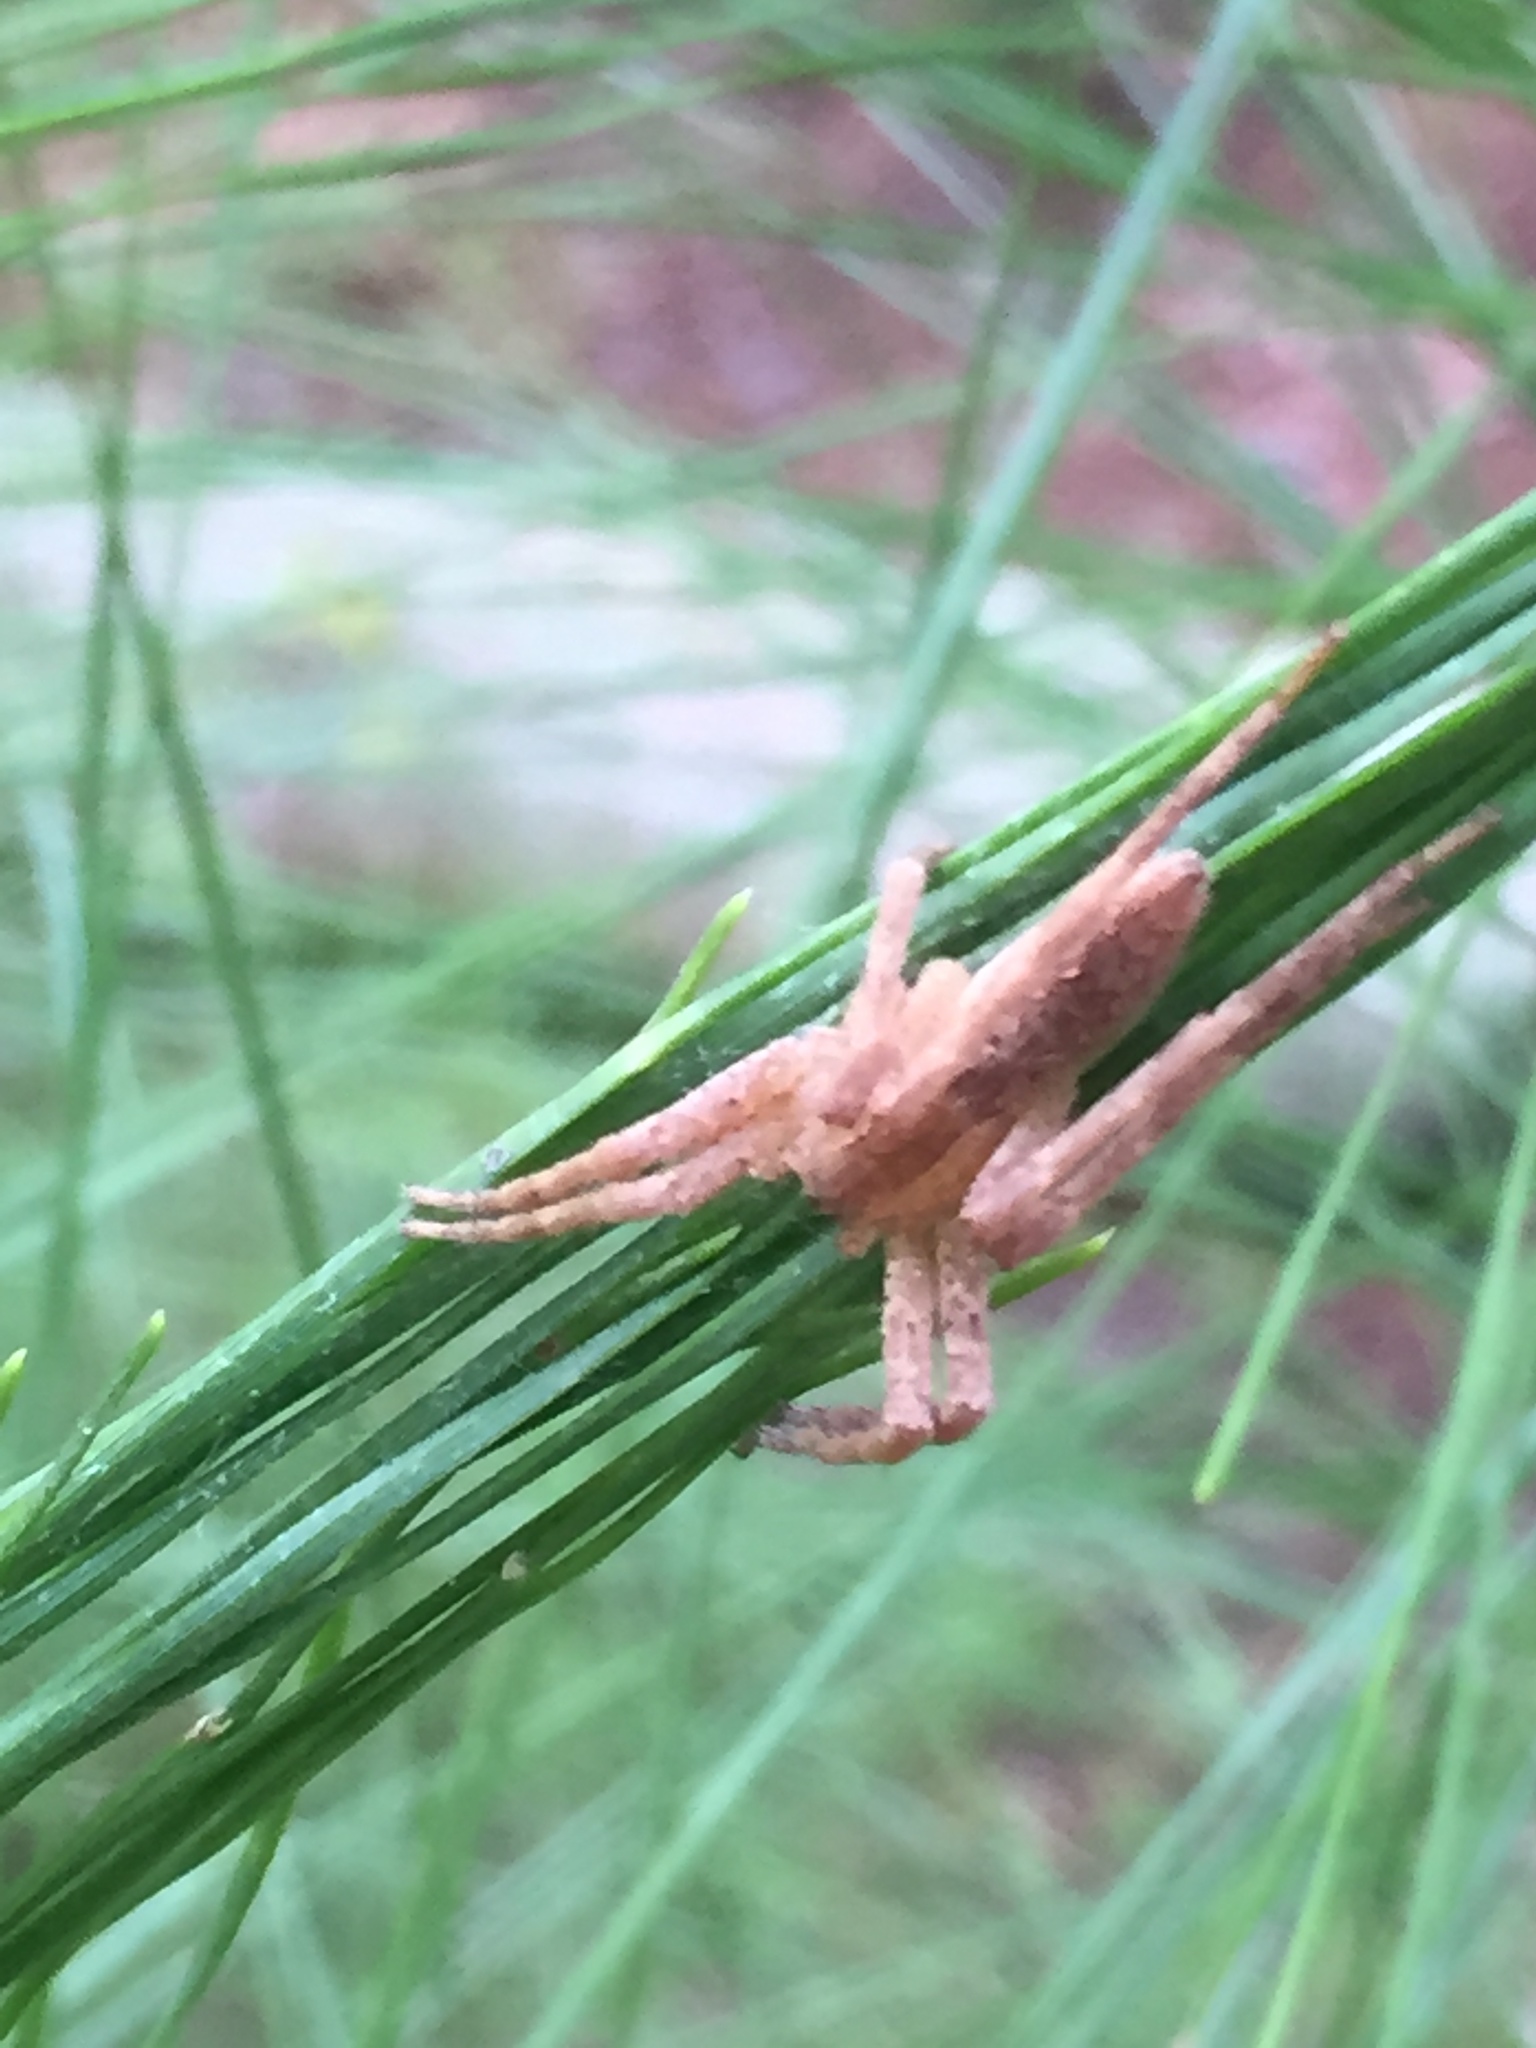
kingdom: Animalia
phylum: Arthropoda
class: Arachnida
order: Araneae
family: Pisauridae
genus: Pisaurina
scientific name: Pisaurina mira
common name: American nursery web spider
